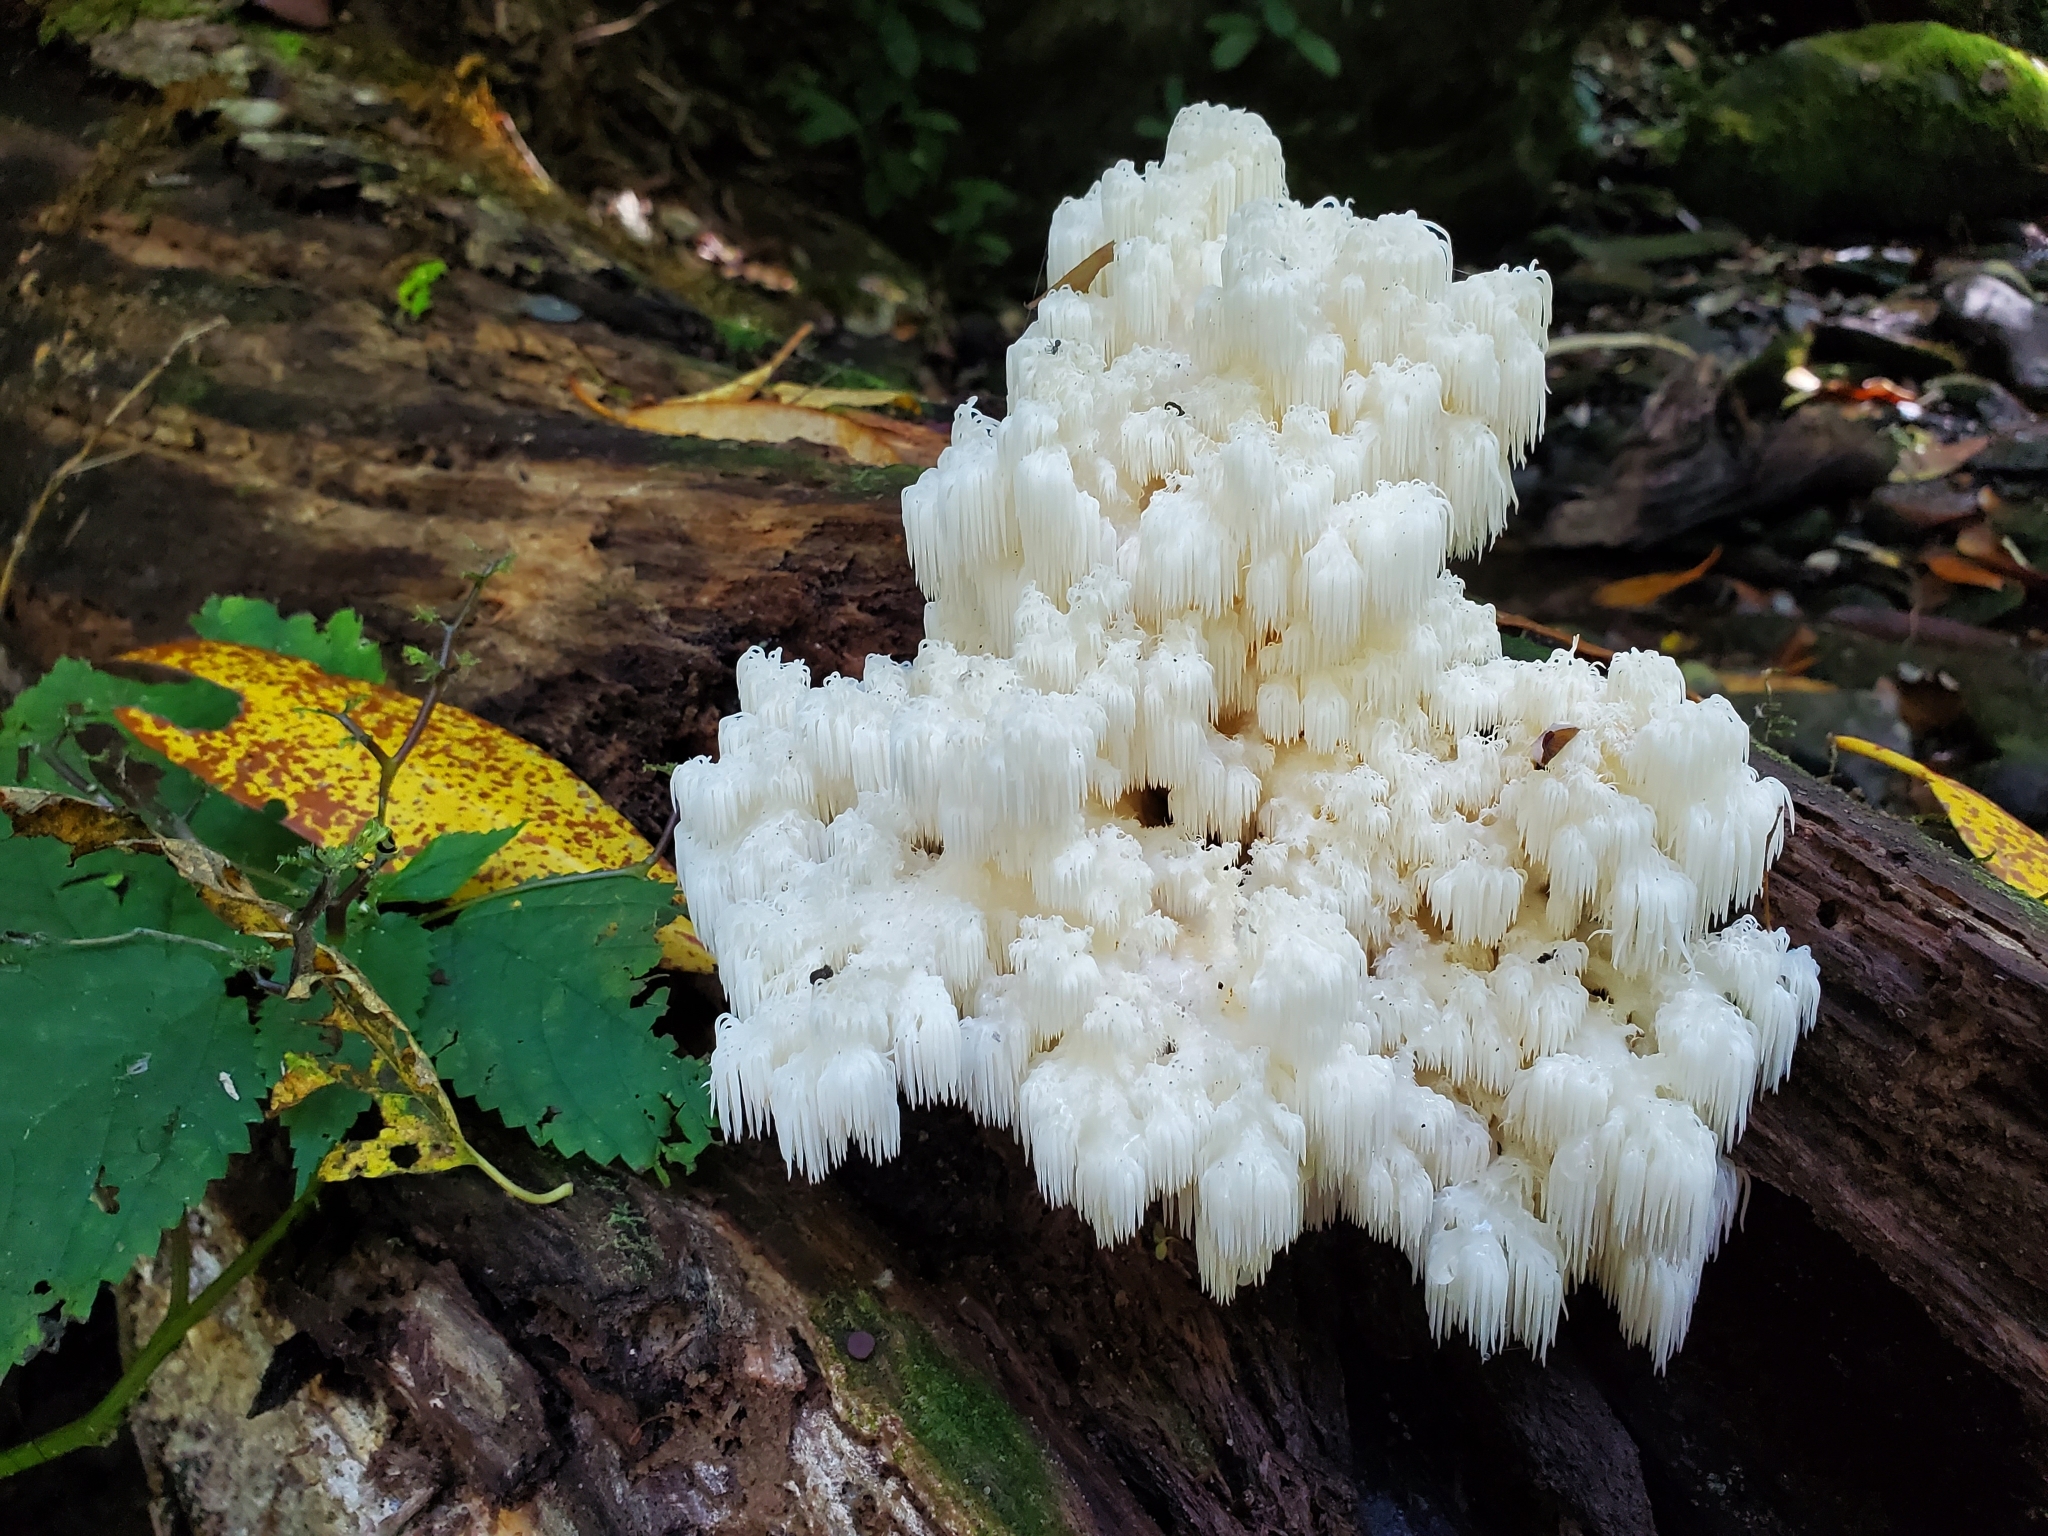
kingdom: Fungi
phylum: Basidiomycota
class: Agaricomycetes
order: Russulales
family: Hericiaceae
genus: Hericium
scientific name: Hericium americanum
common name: Bear's head tooth
